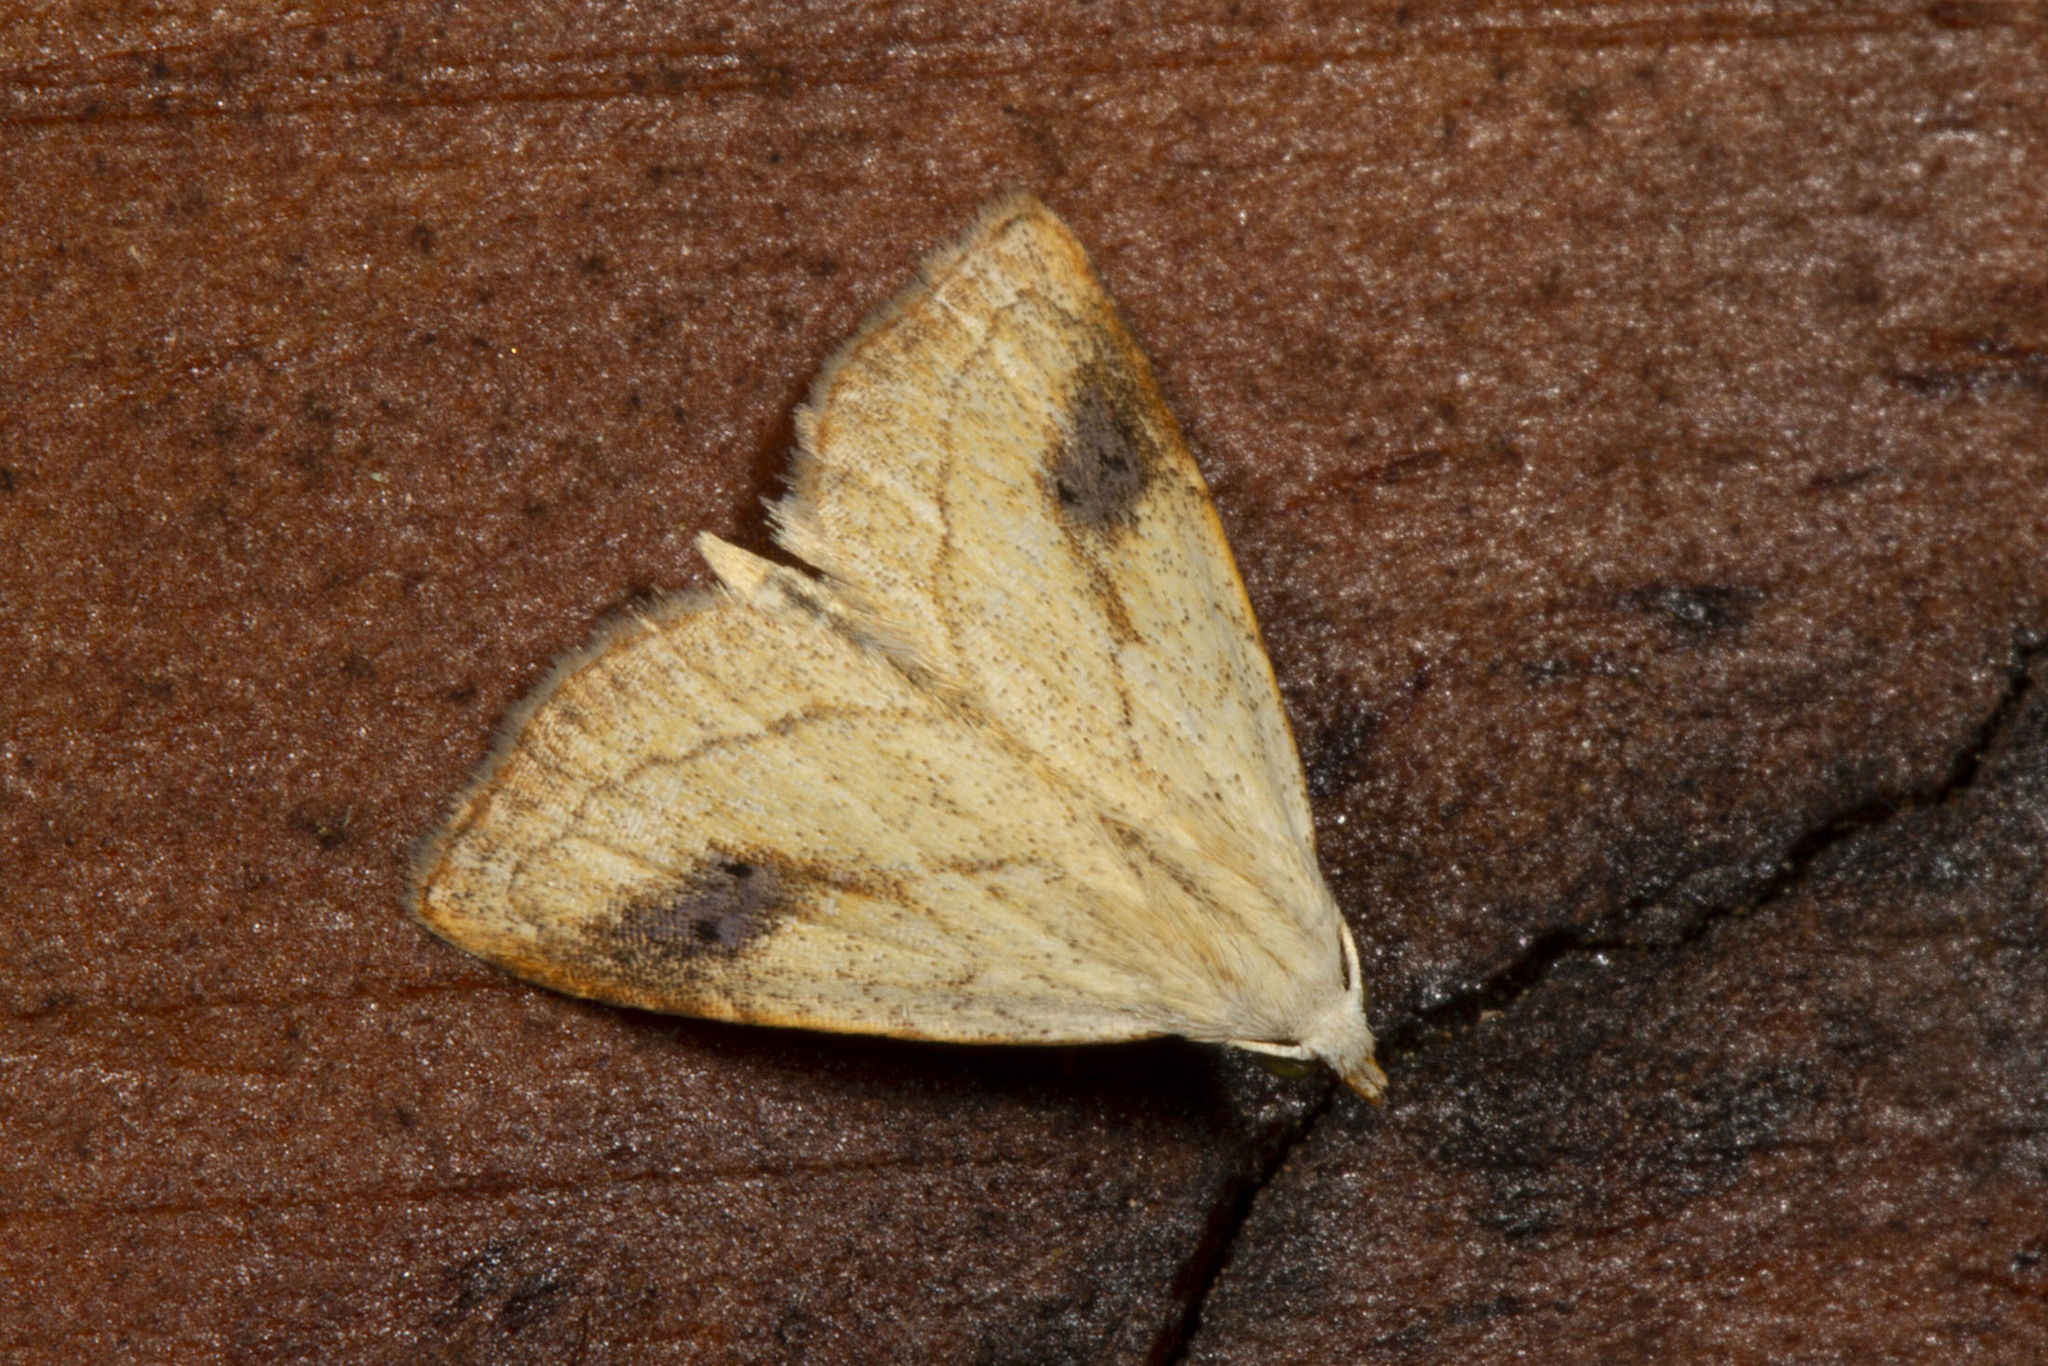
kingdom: Animalia
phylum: Arthropoda
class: Insecta
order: Lepidoptera
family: Erebidae
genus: Rivula
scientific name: Rivula propinqualis
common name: Spotted grass moth
